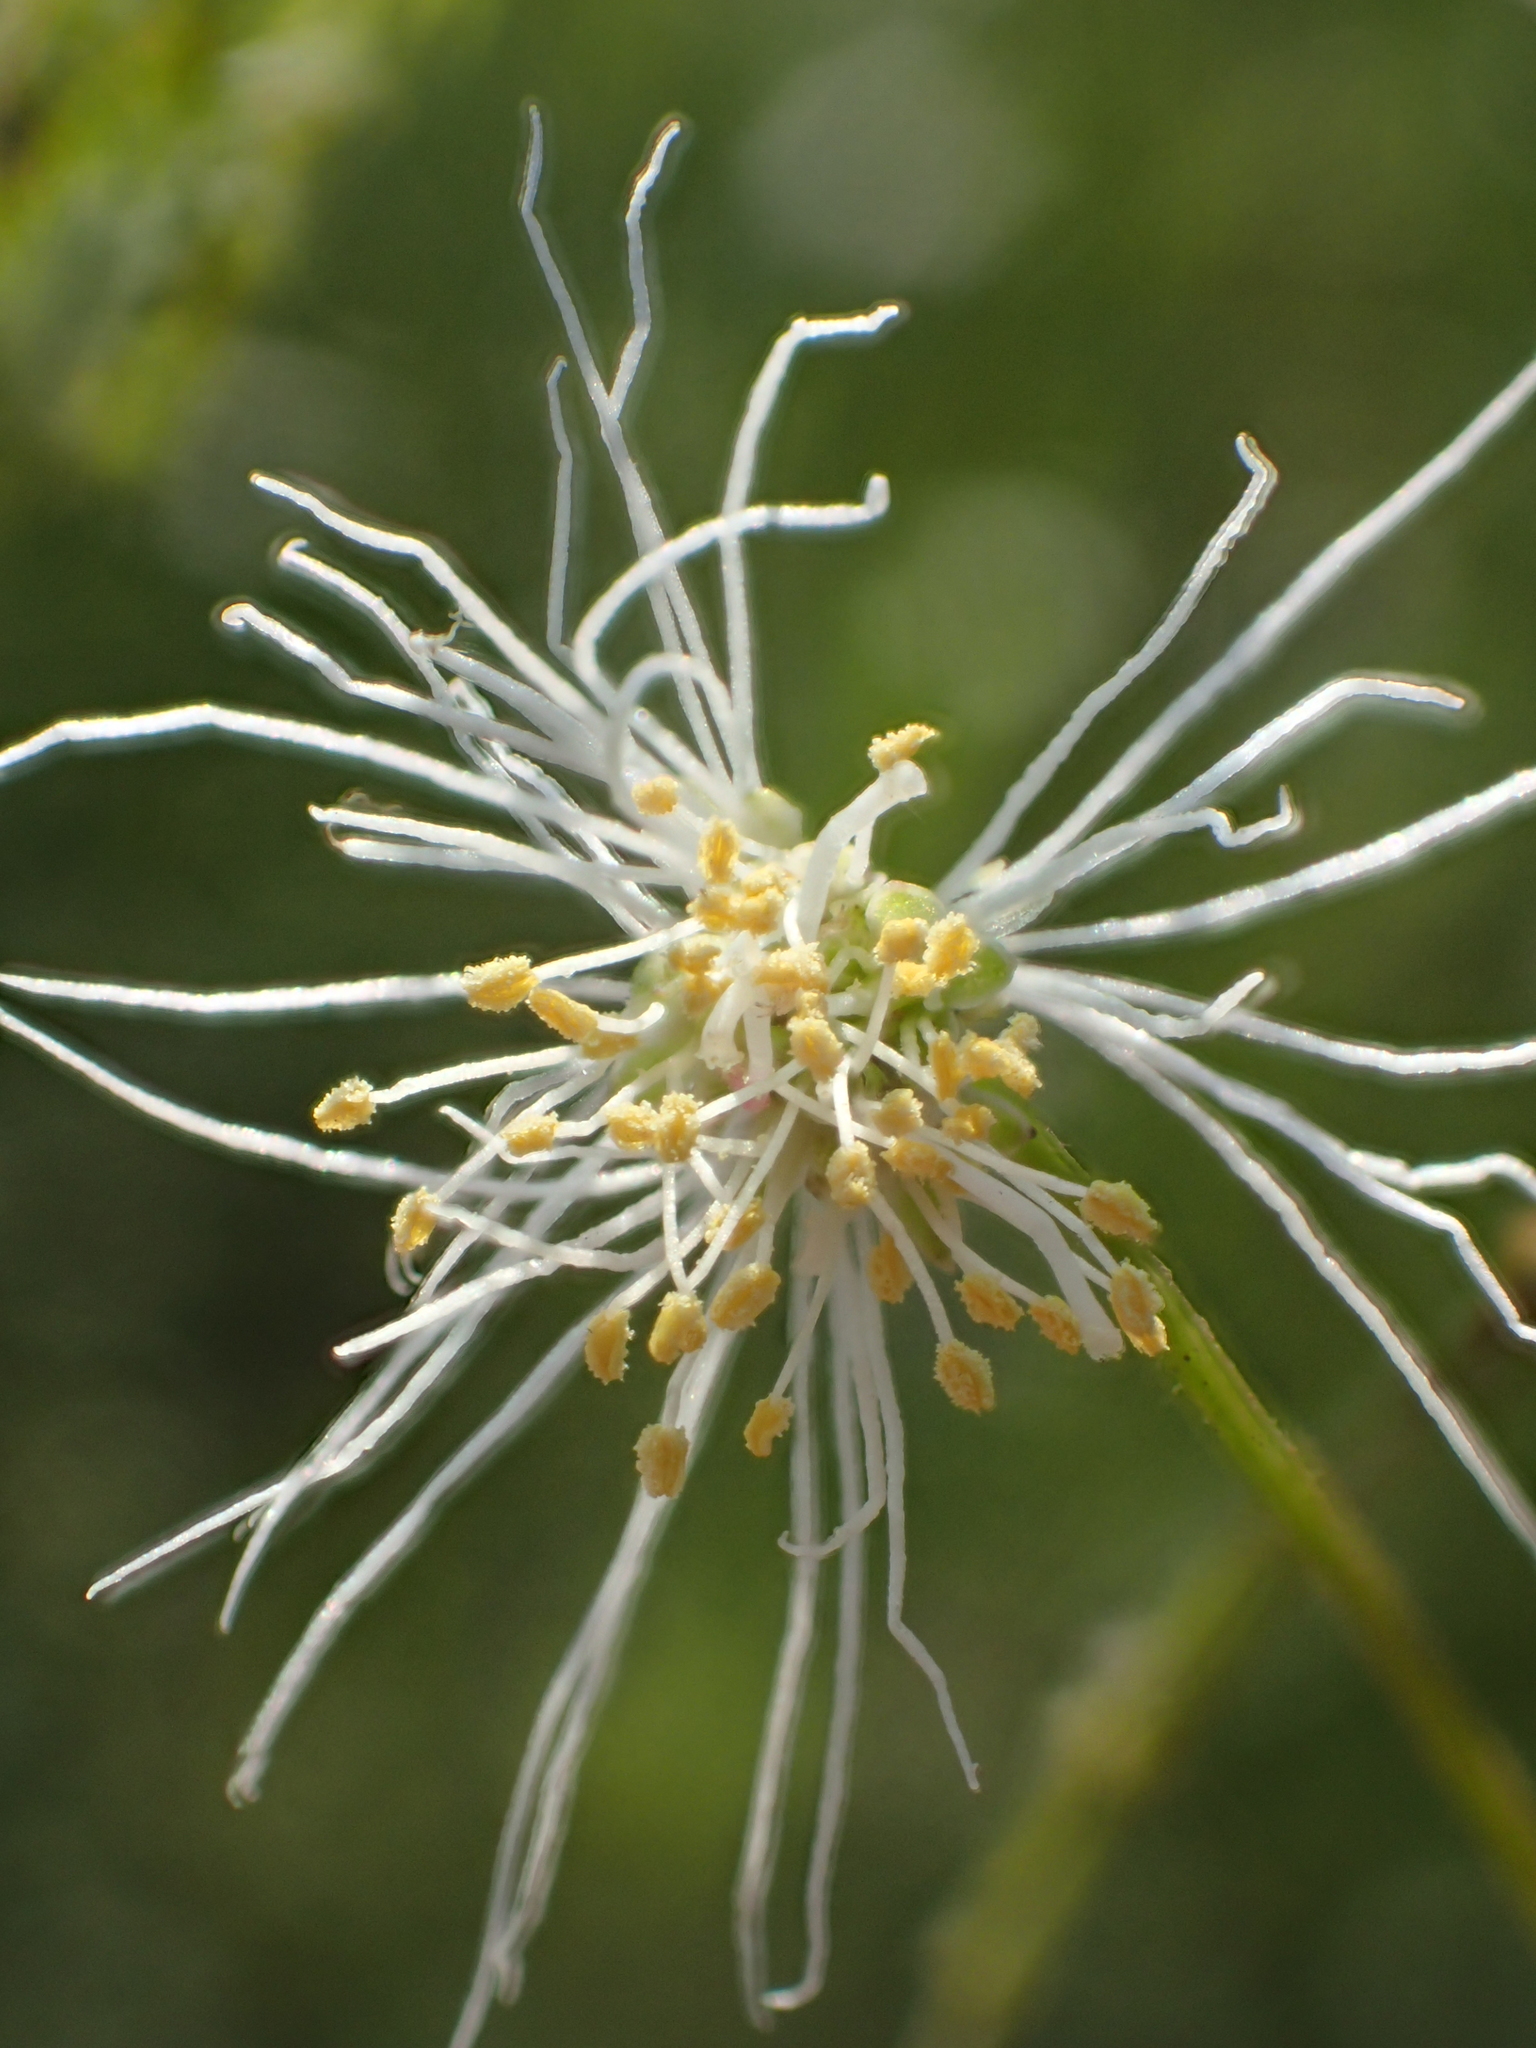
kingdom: Plantae
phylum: Tracheophyta
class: Magnoliopsida
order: Fabales
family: Fabaceae
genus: Desmanthus
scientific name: Desmanthus virgatus
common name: Wild tantan
